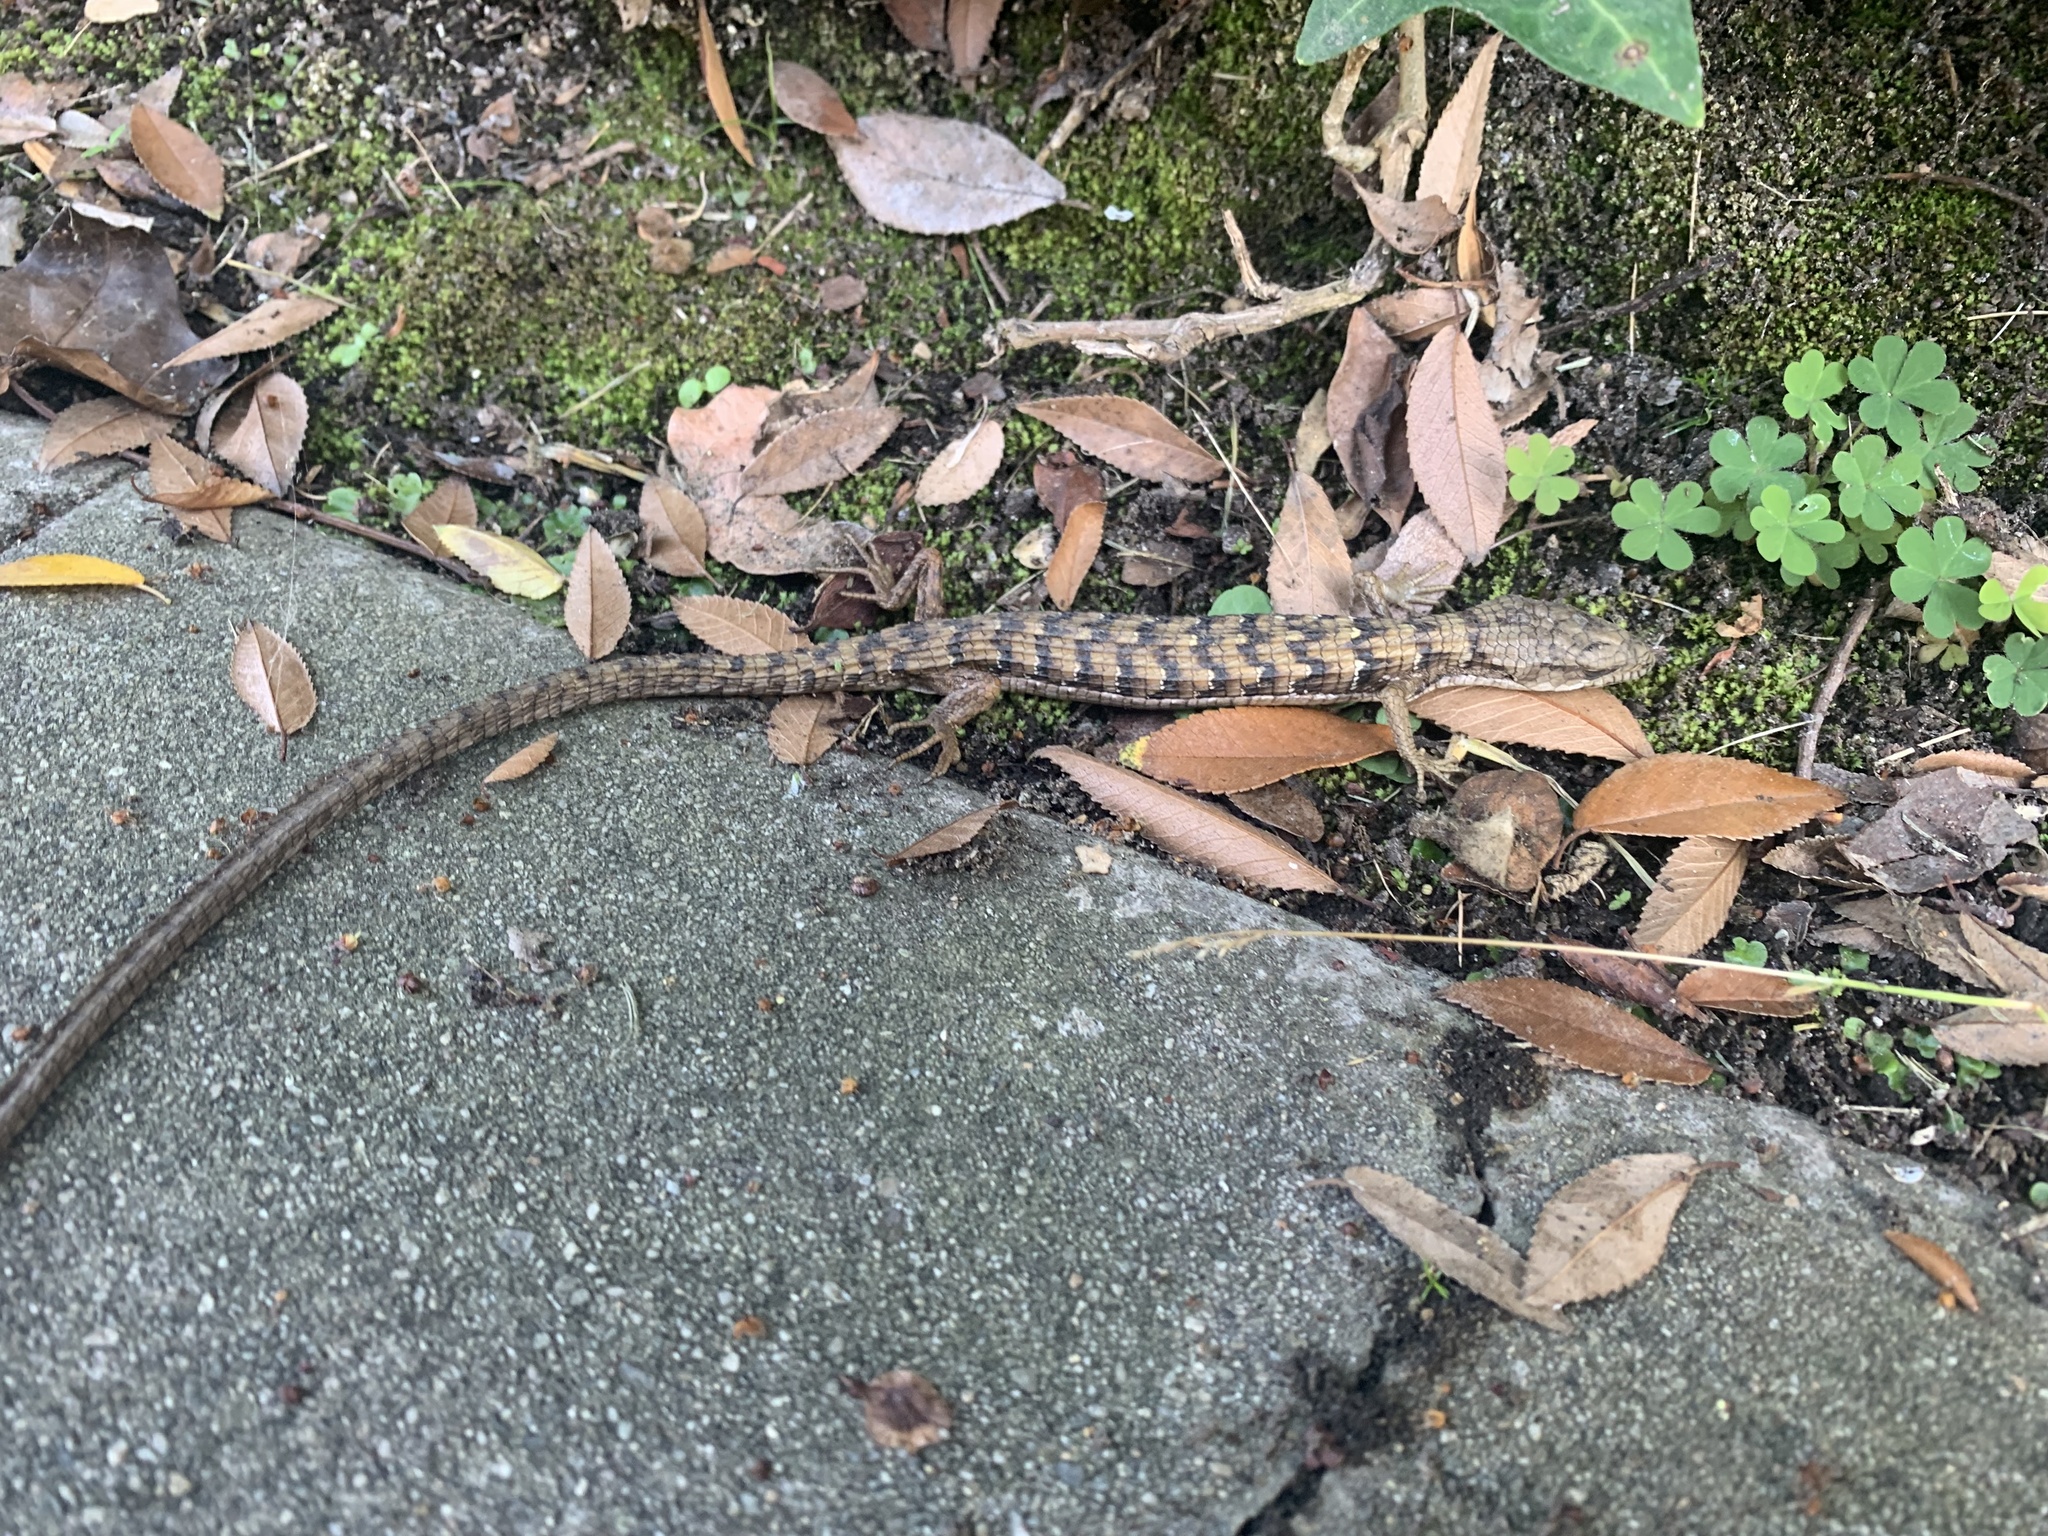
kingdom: Animalia
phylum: Chordata
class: Squamata
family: Anguidae
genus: Elgaria
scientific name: Elgaria multicarinata
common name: Southern alligator lizard
